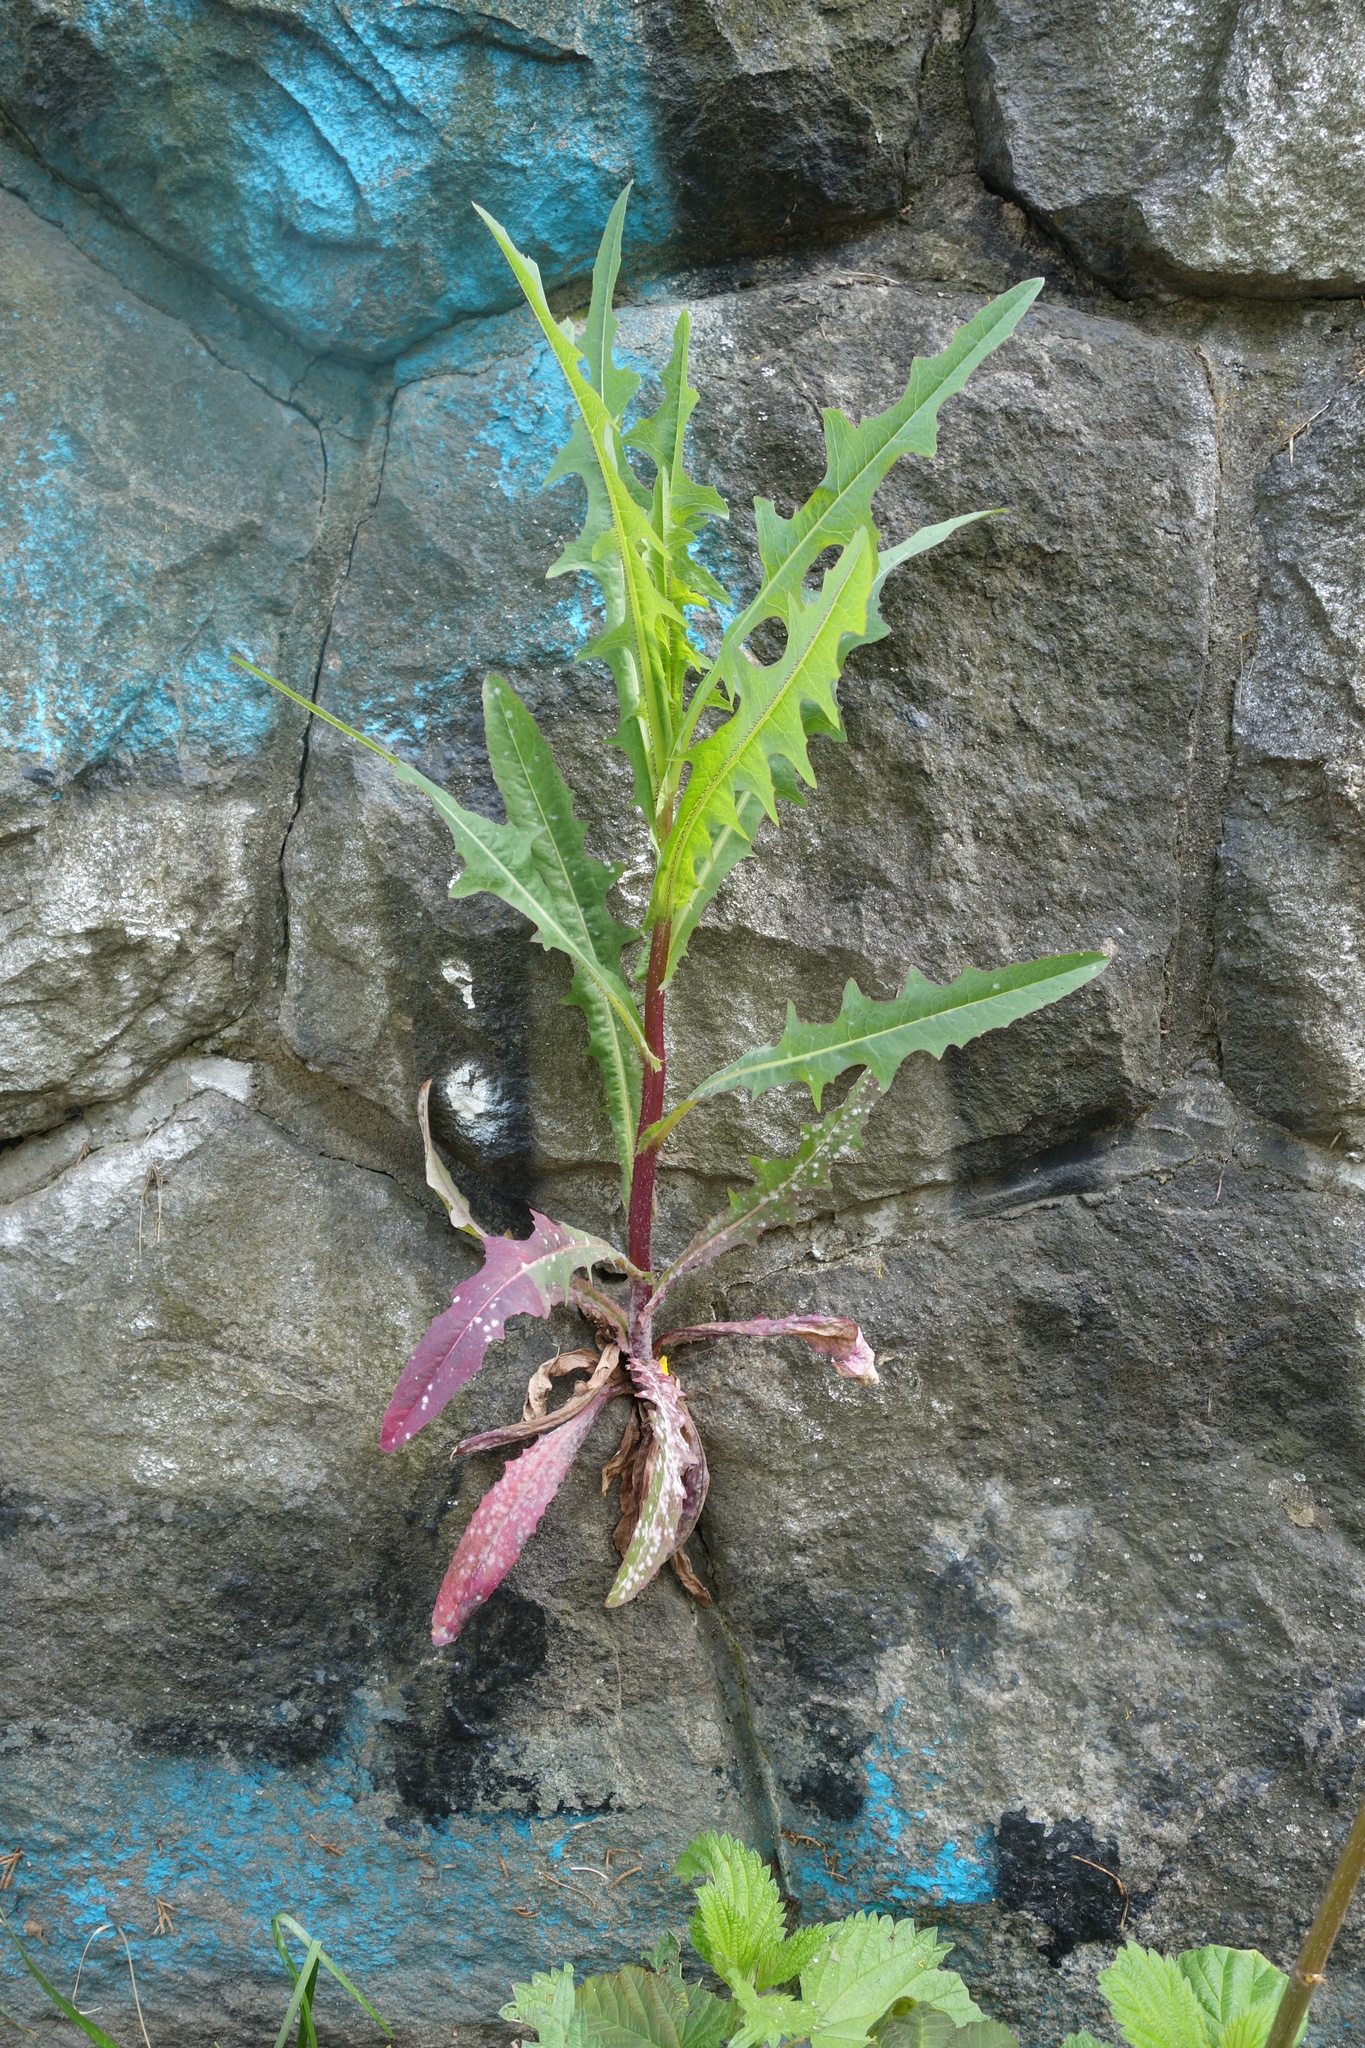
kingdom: Plantae
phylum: Tracheophyta
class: Magnoliopsida
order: Asterales
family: Asteraceae
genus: Lactuca
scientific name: Lactuca serriola
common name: Prickly lettuce
